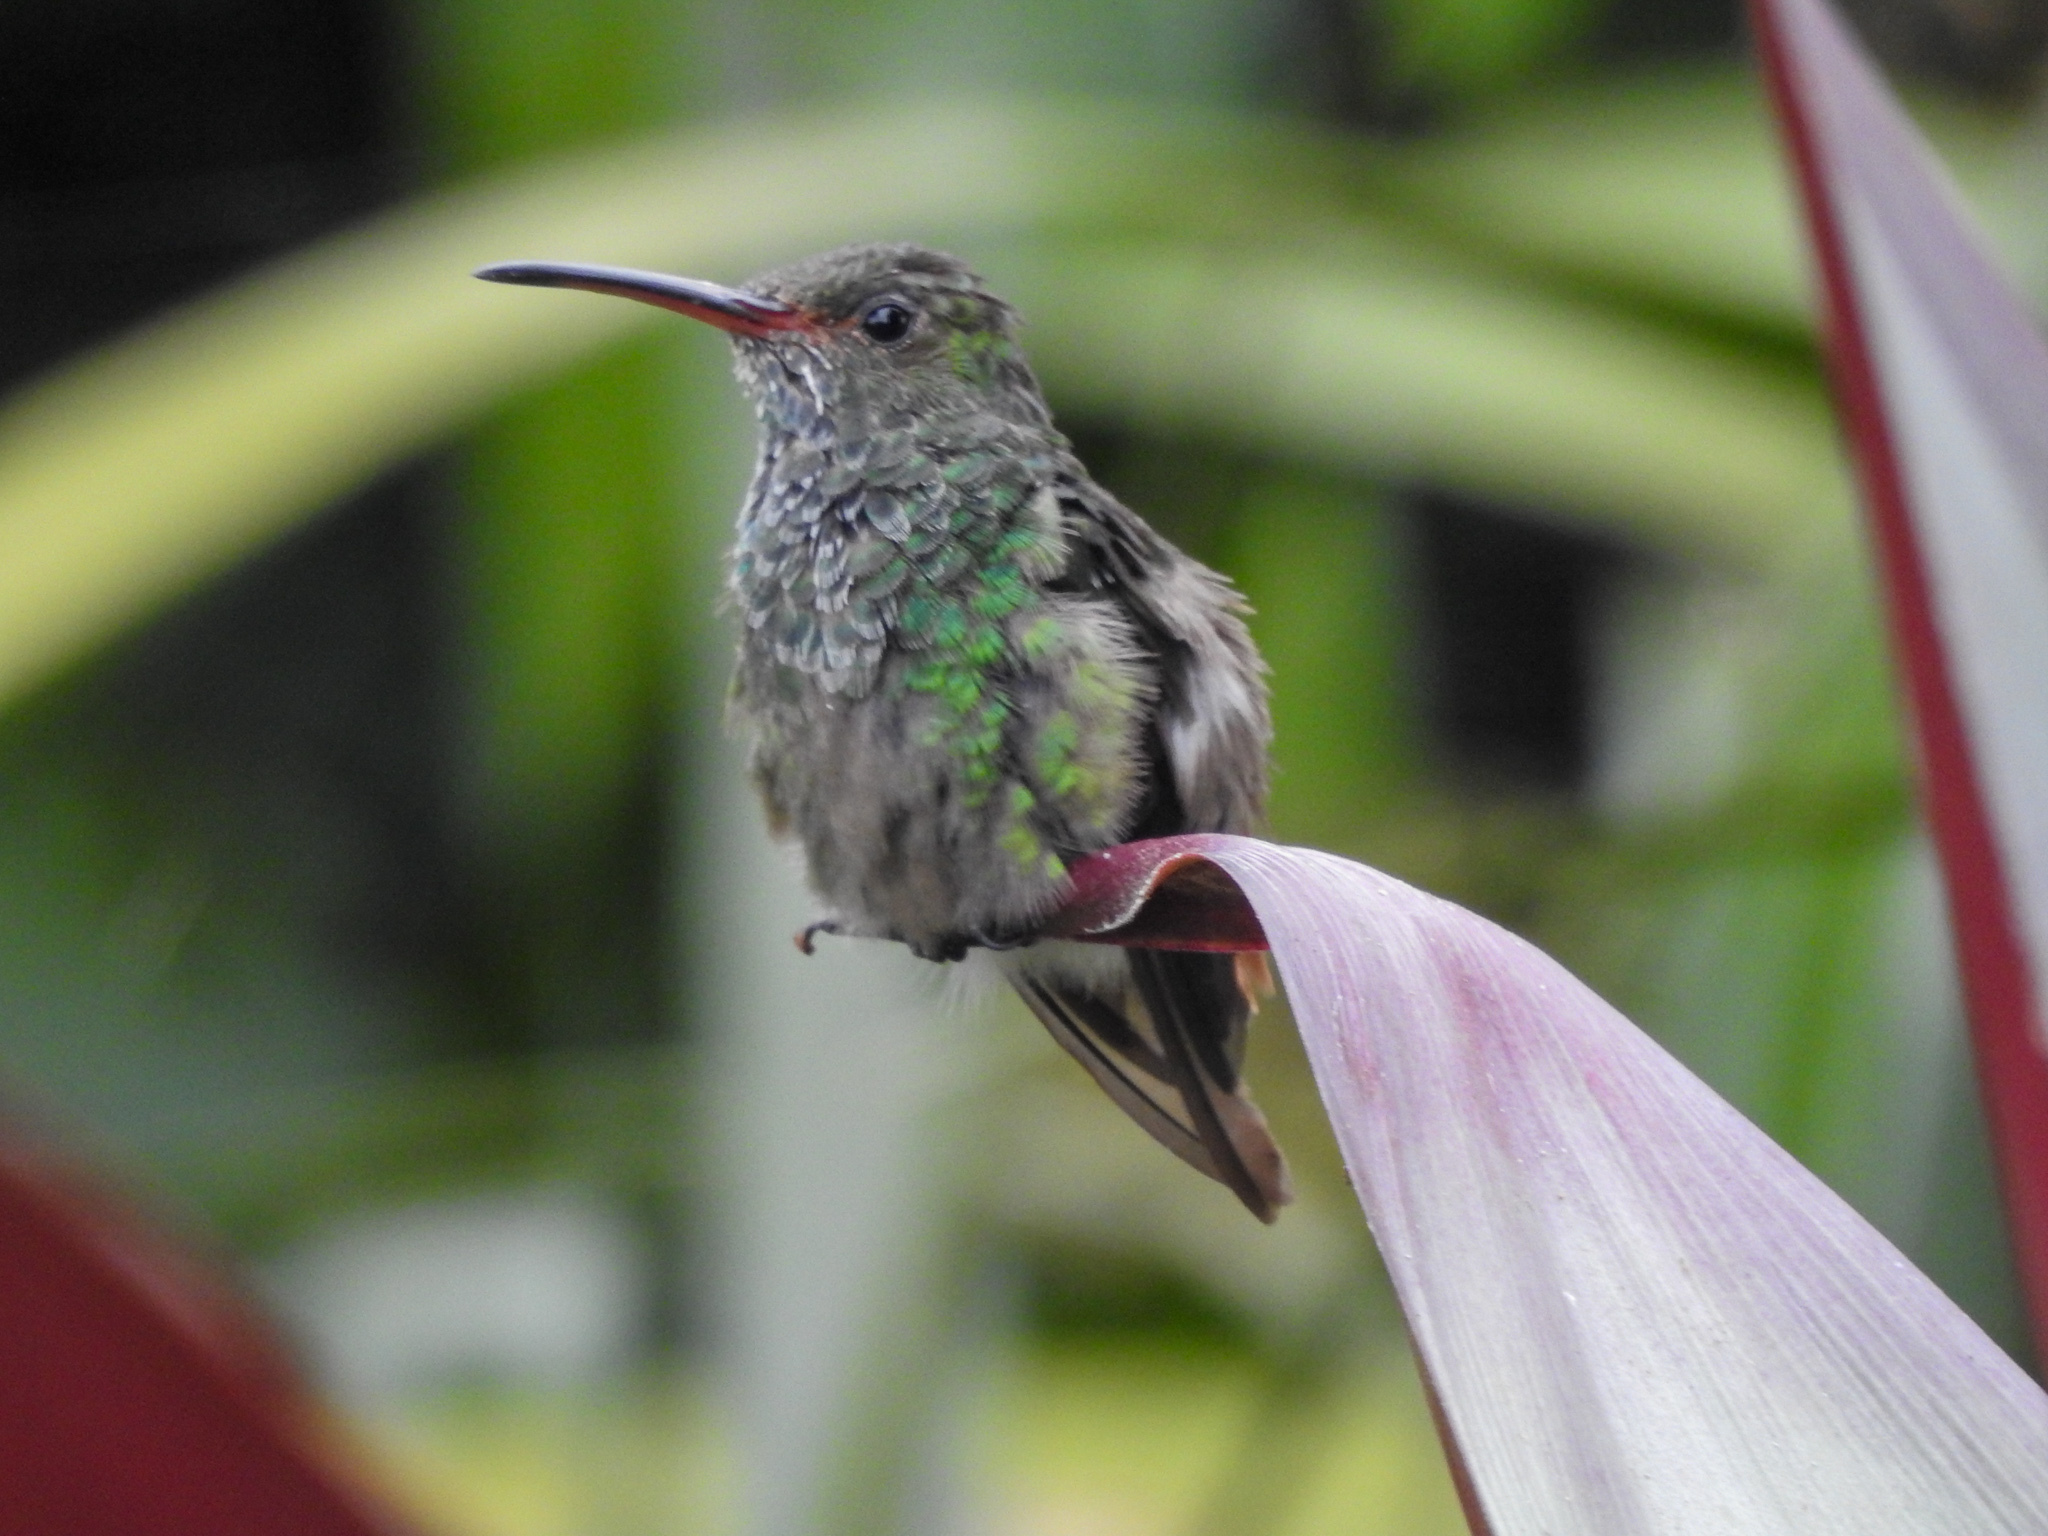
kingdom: Animalia
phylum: Chordata
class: Aves
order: Apodiformes
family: Trochilidae
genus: Amazilia
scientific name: Amazilia tzacatl
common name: Rufous-tailed hummingbird
